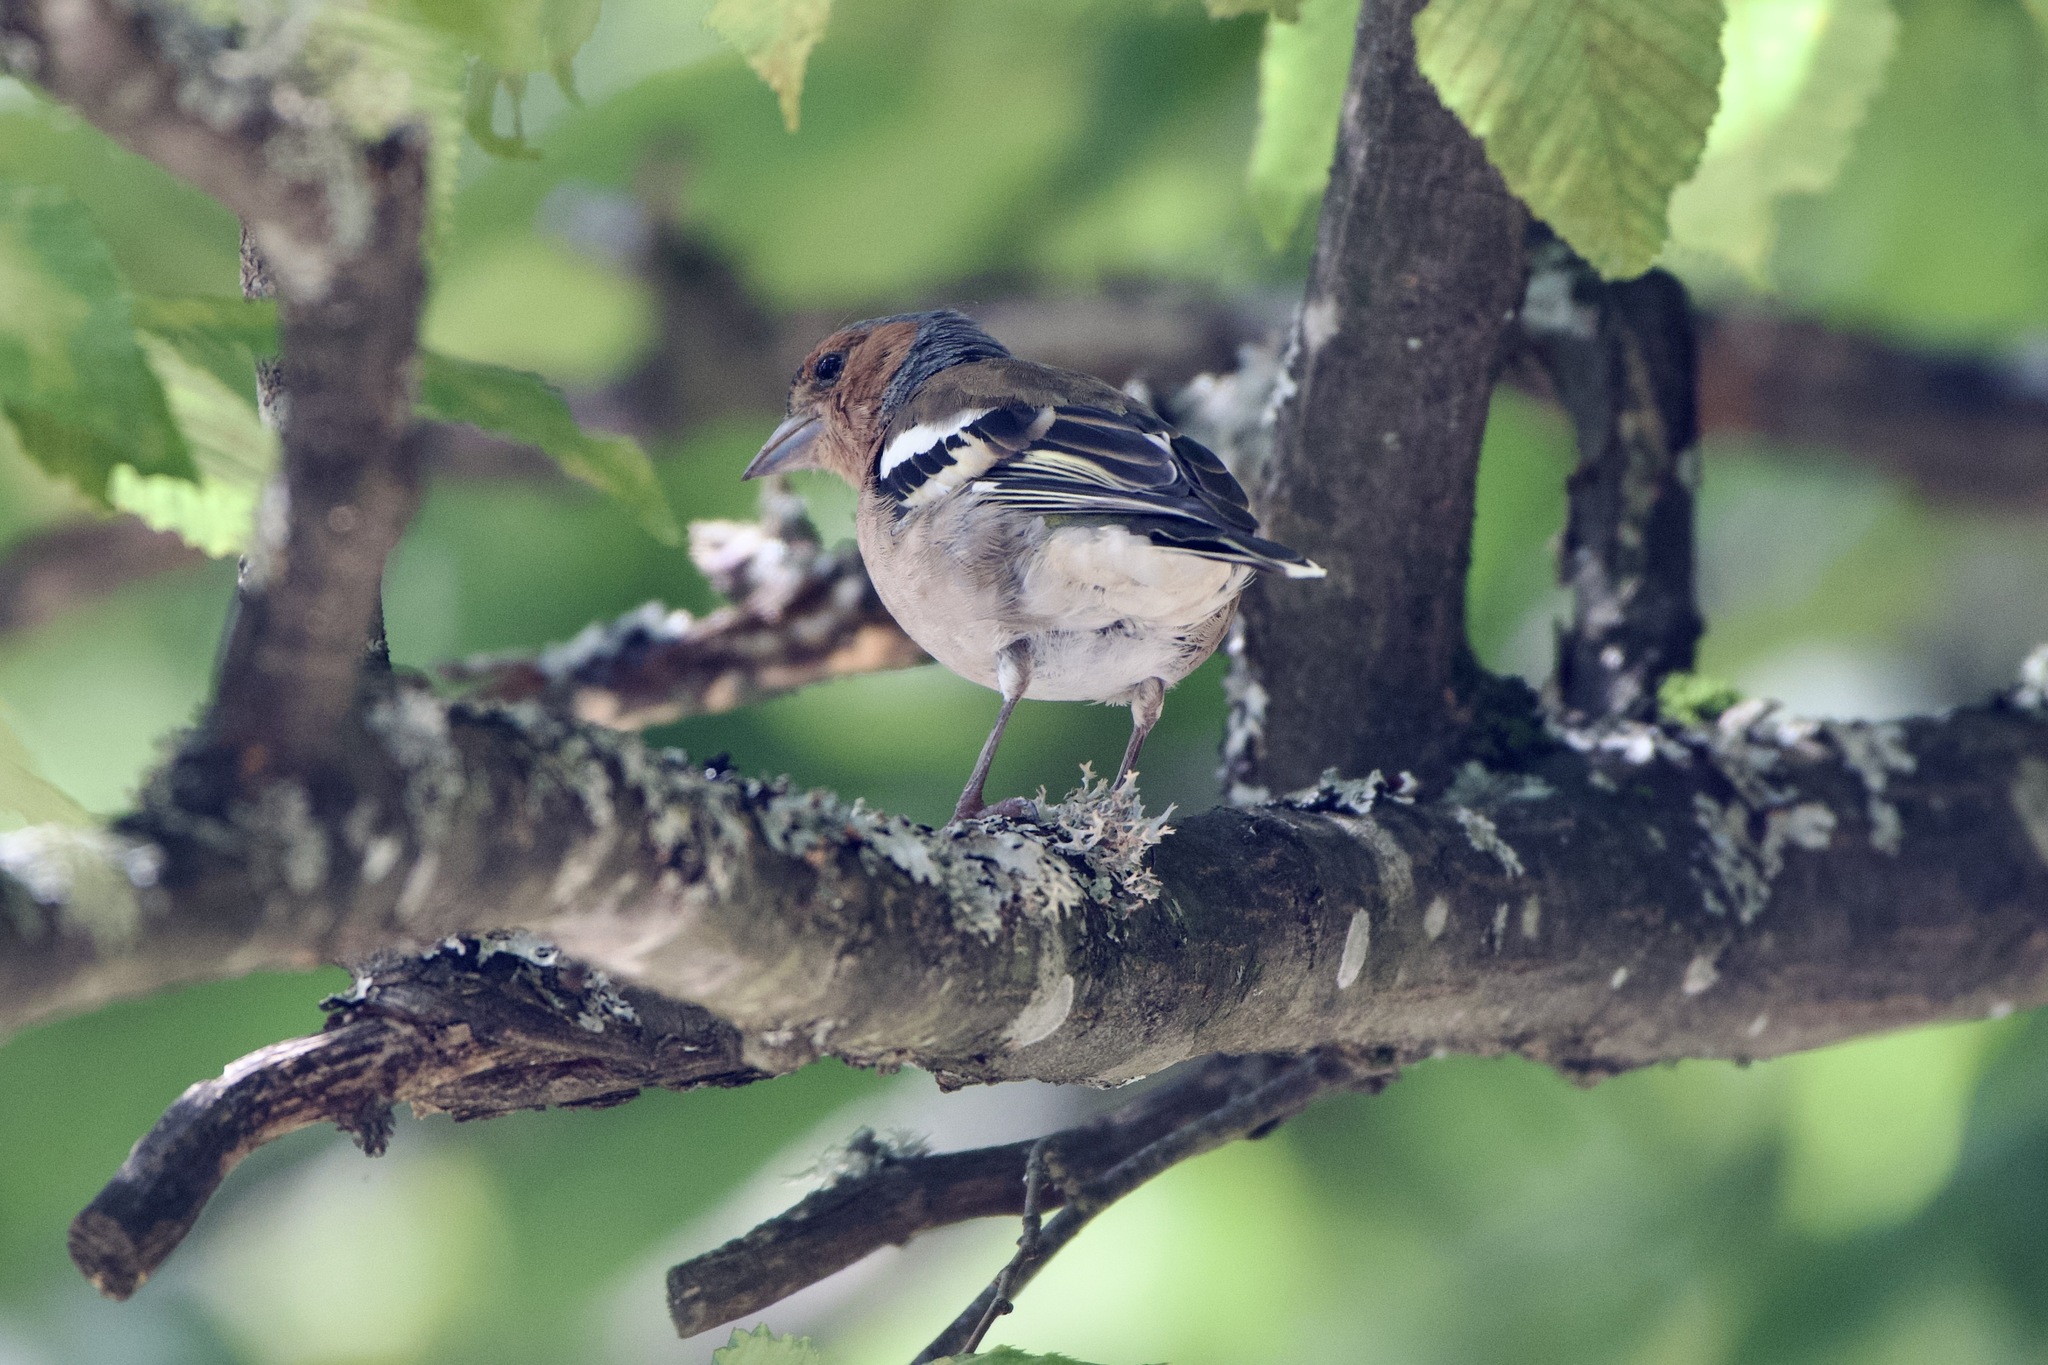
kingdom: Animalia
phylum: Chordata
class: Aves
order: Passeriformes
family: Fringillidae
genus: Fringilla
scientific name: Fringilla coelebs
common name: Common chaffinch
